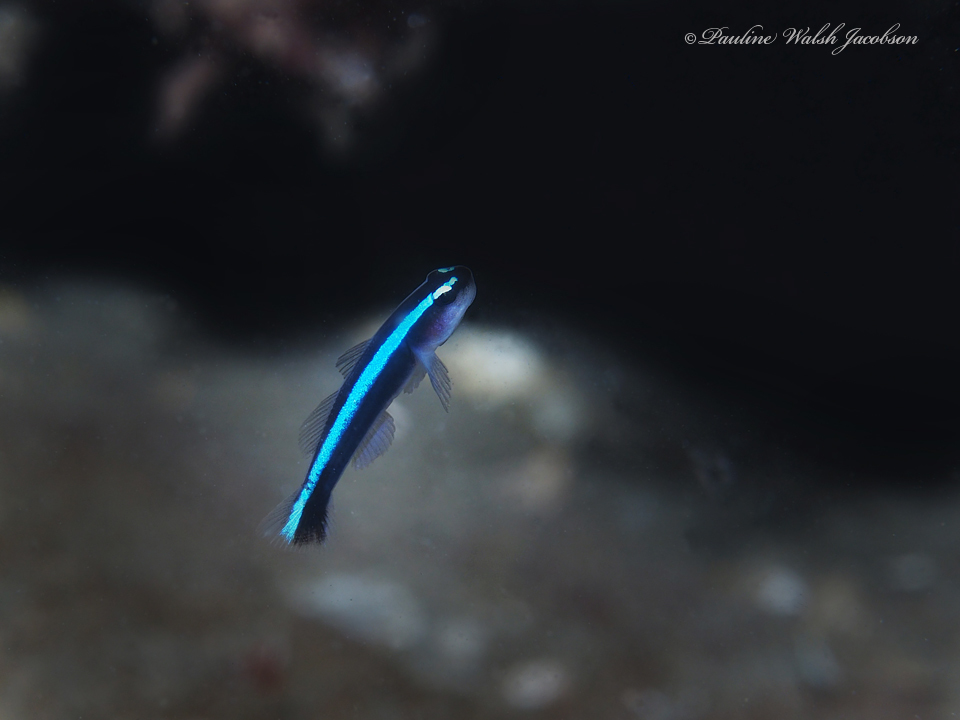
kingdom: Animalia
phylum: Chordata
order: Perciformes
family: Gobiidae
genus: Elacatinus
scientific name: Elacatinus oceanops
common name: Northern neon goby
